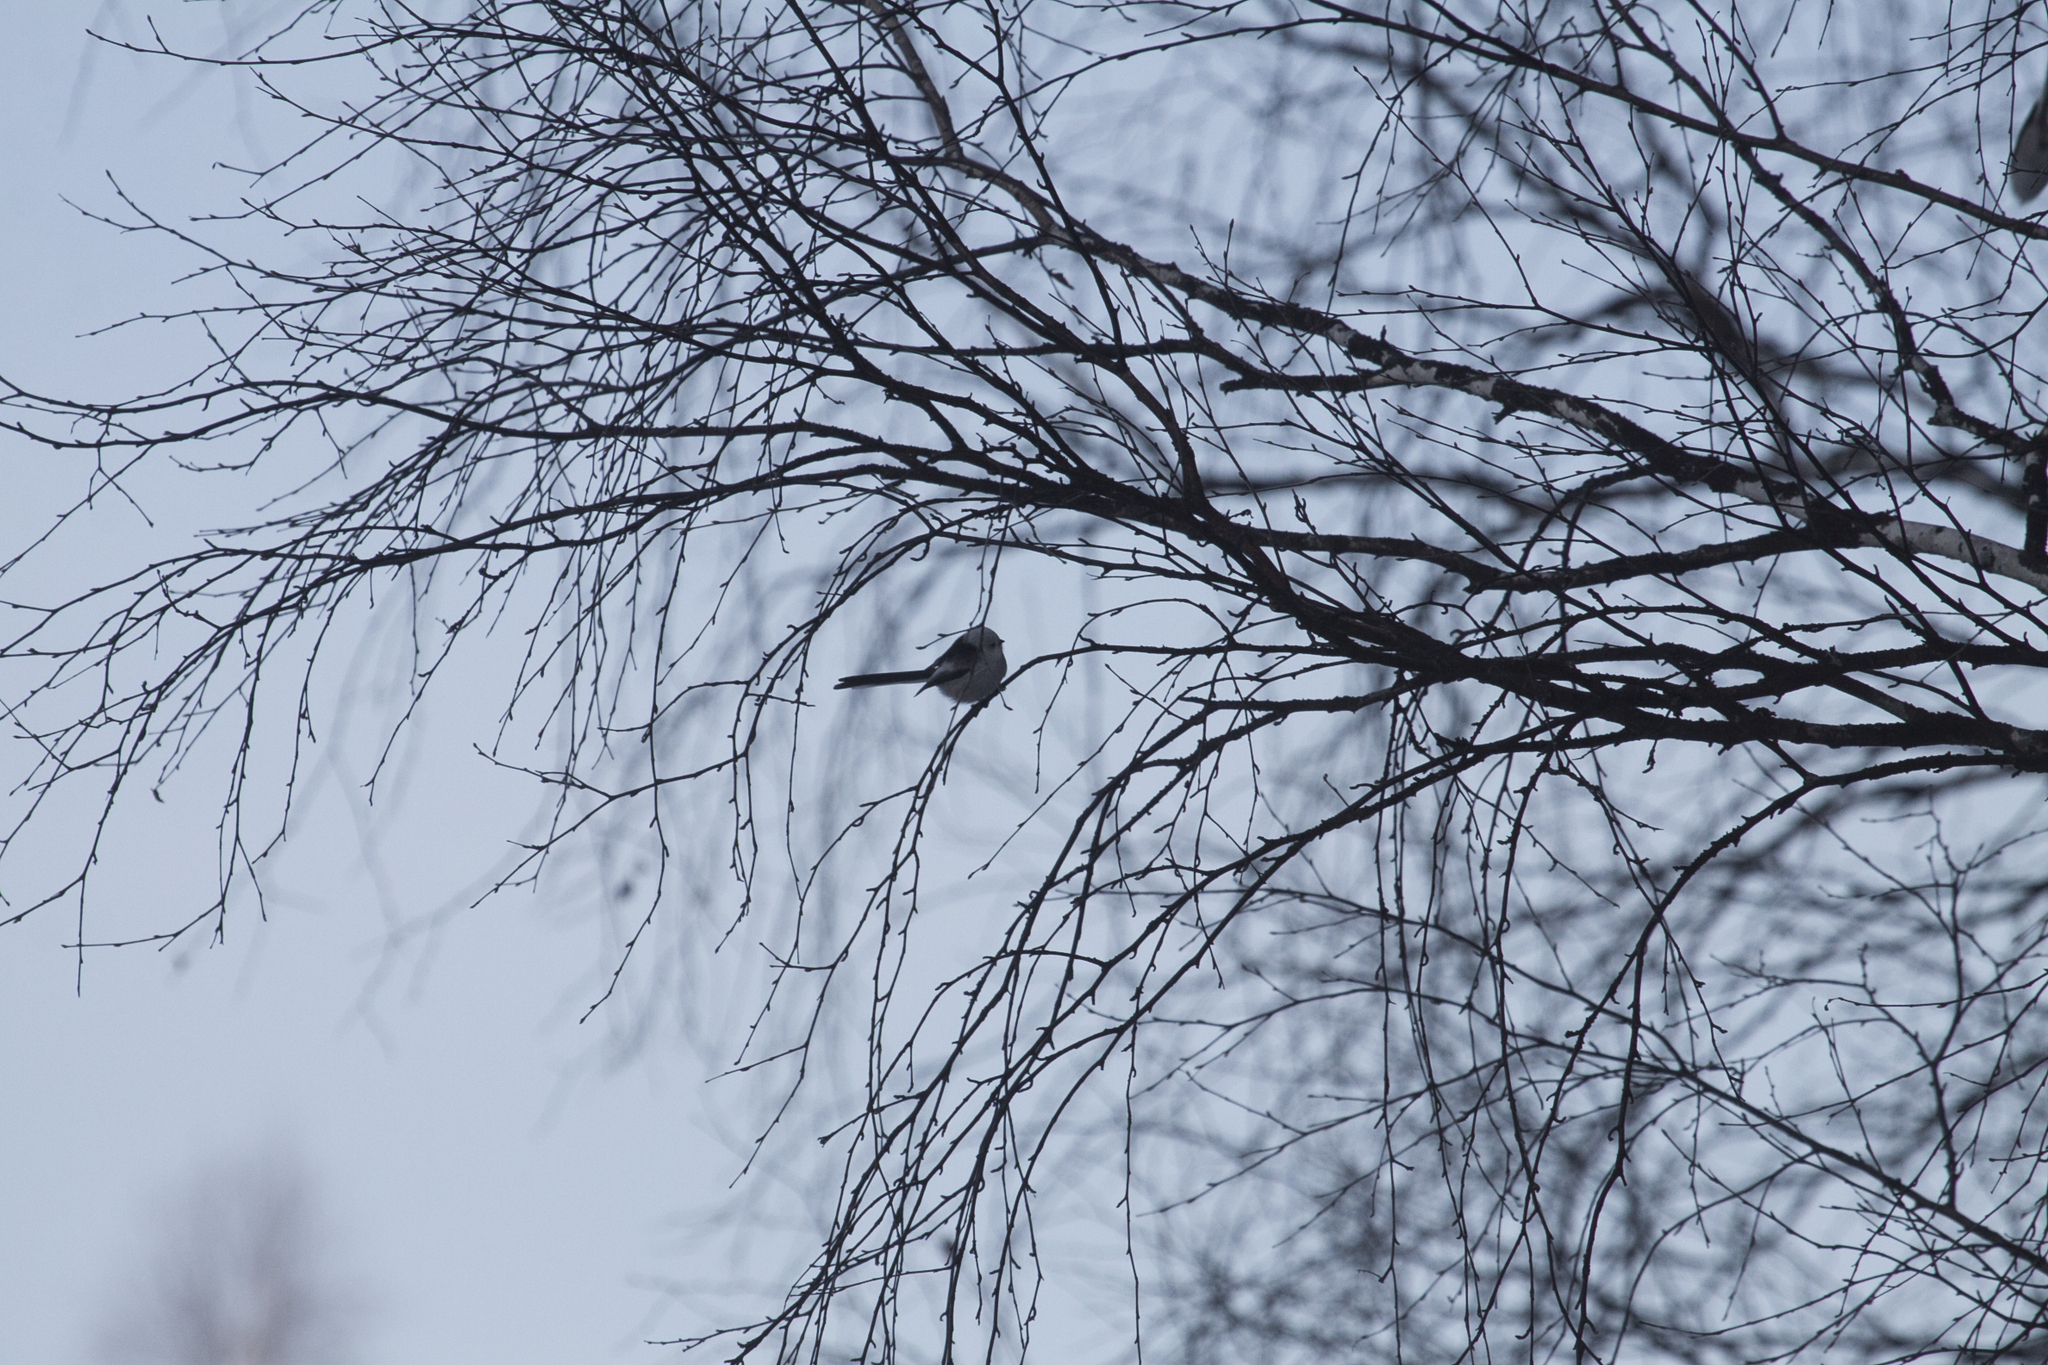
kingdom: Animalia
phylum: Chordata
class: Aves
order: Passeriformes
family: Aegithalidae
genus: Aegithalos
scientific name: Aegithalos caudatus
